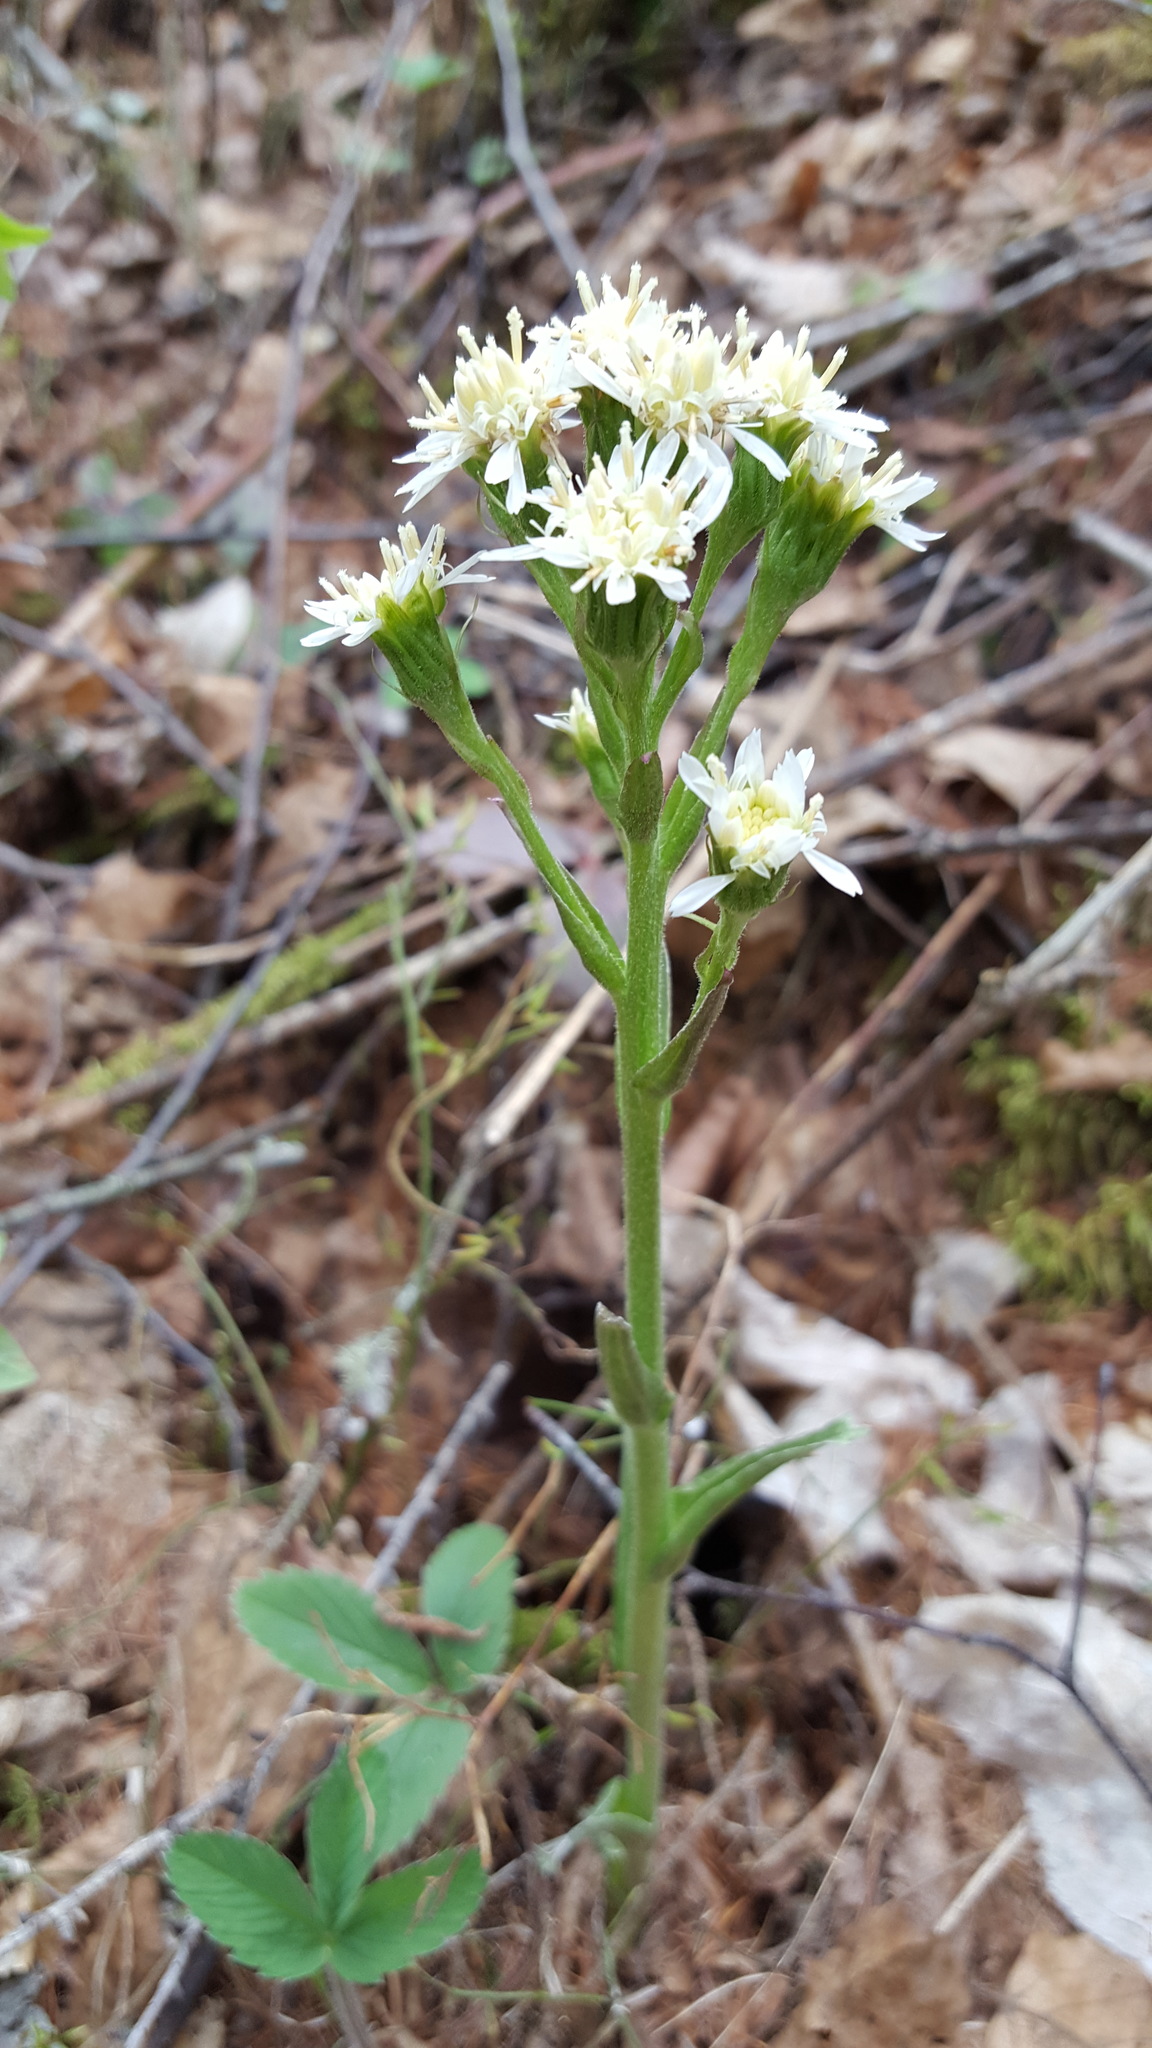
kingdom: Plantae
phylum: Tracheophyta
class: Magnoliopsida
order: Asterales
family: Asteraceae
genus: Petasites
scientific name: Petasites frigidus
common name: Arctic butterbur
